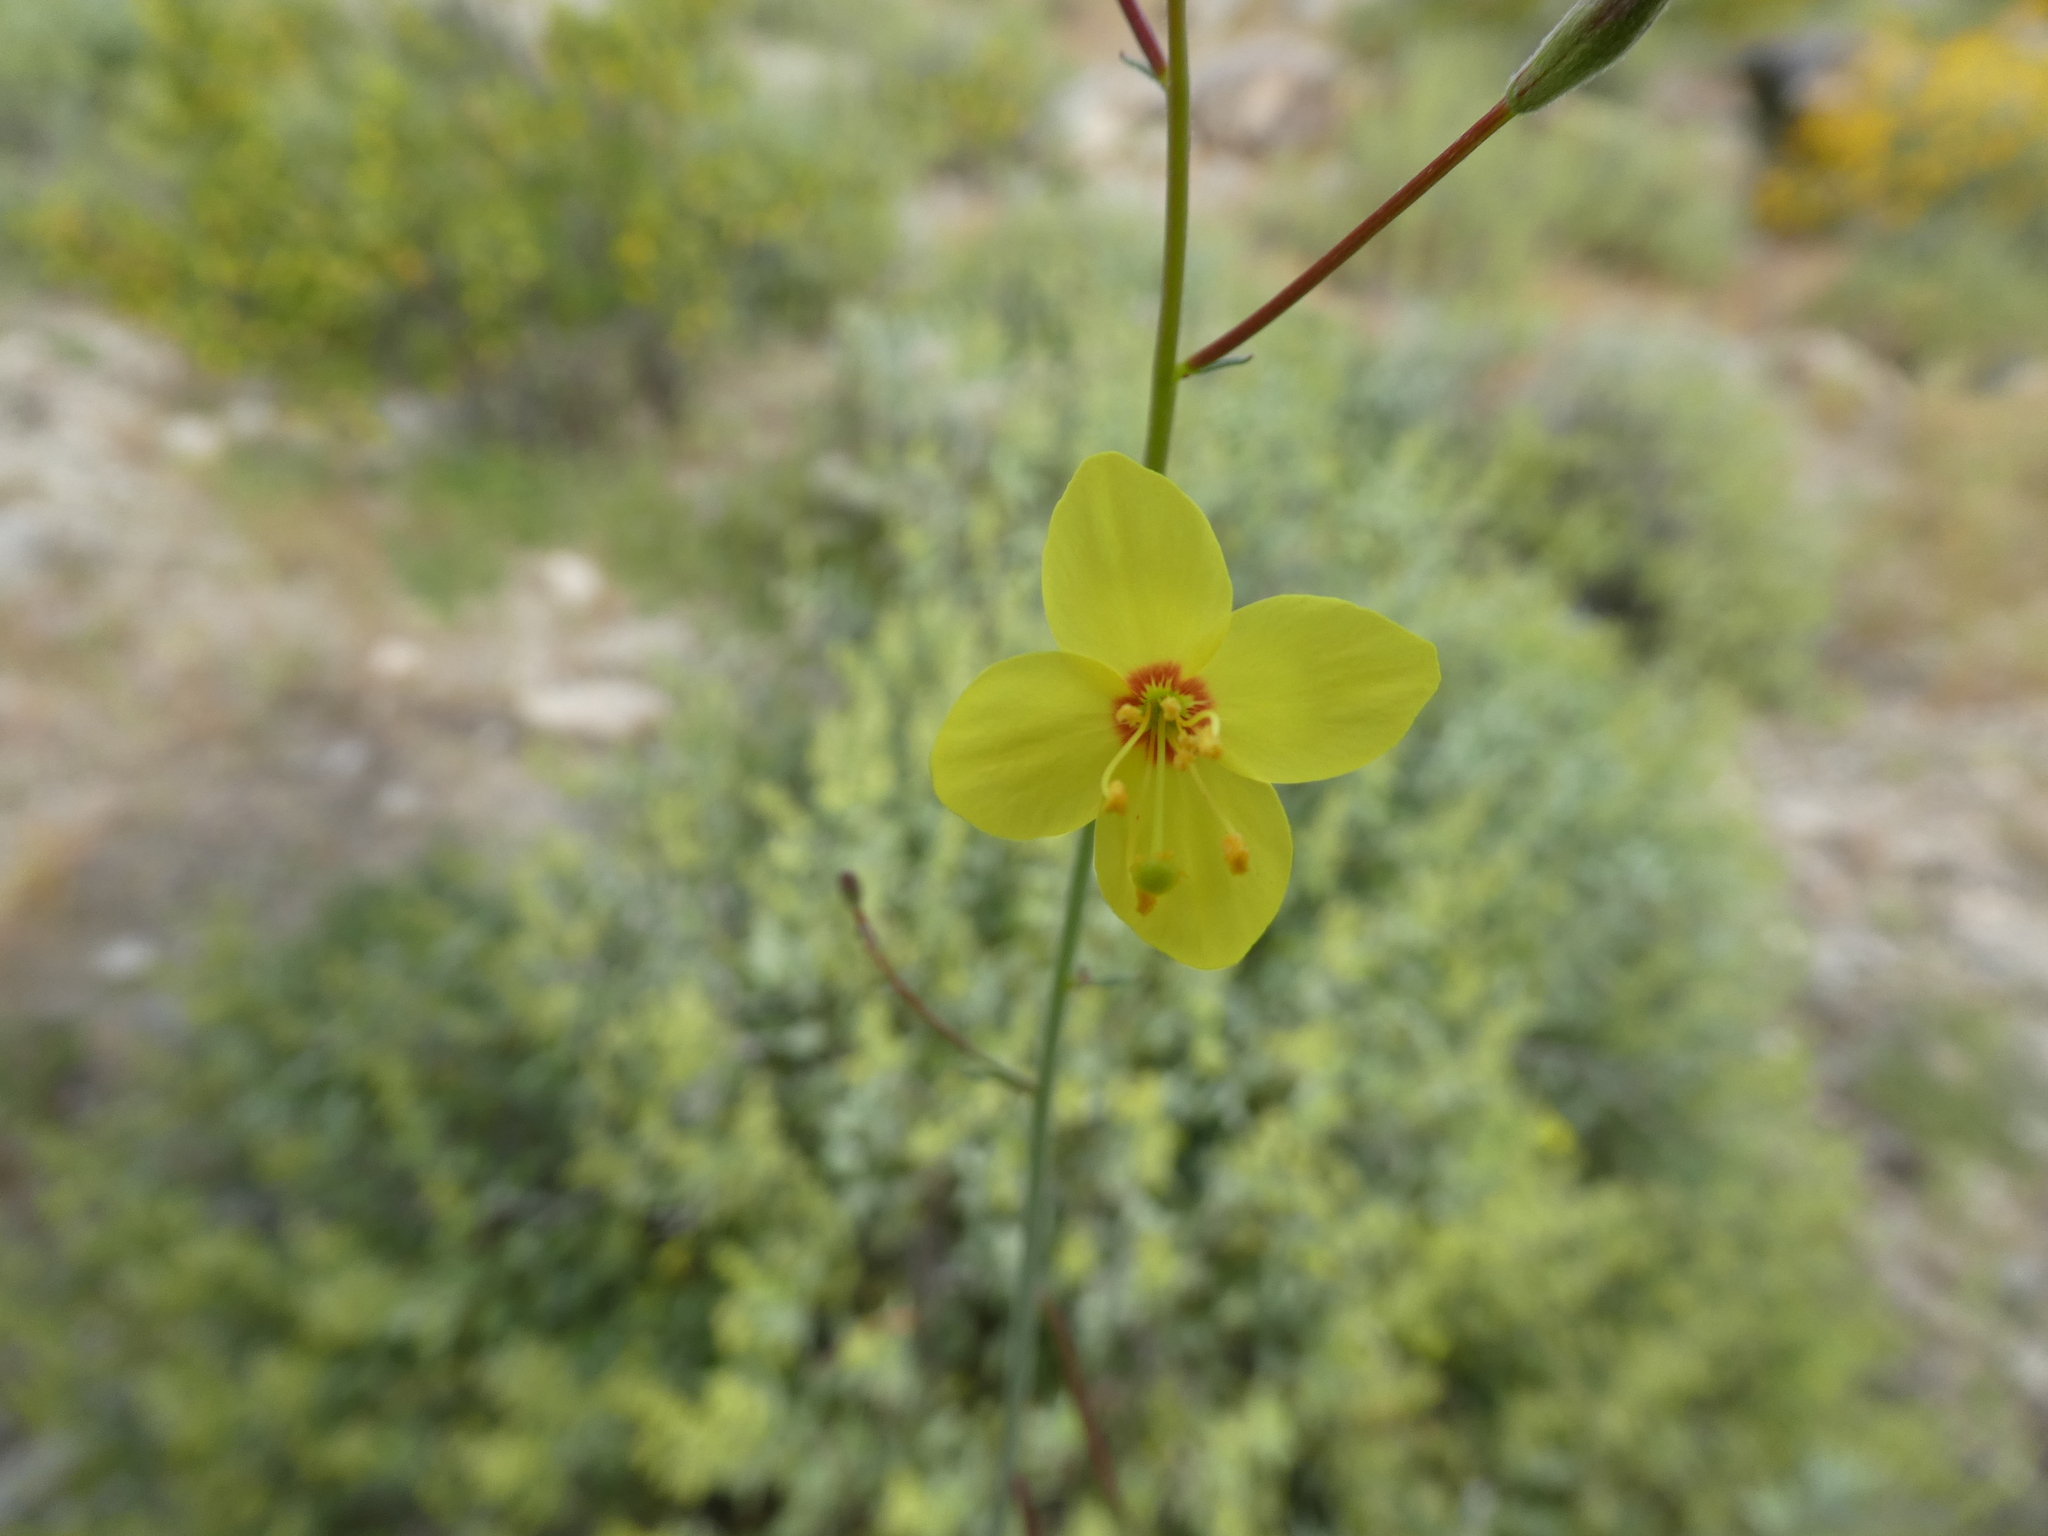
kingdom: Plantae
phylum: Tracheophyta
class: Magnoliopsida
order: Myrtales
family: Onagraceae
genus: Eulobus
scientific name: Eulobus californicus
